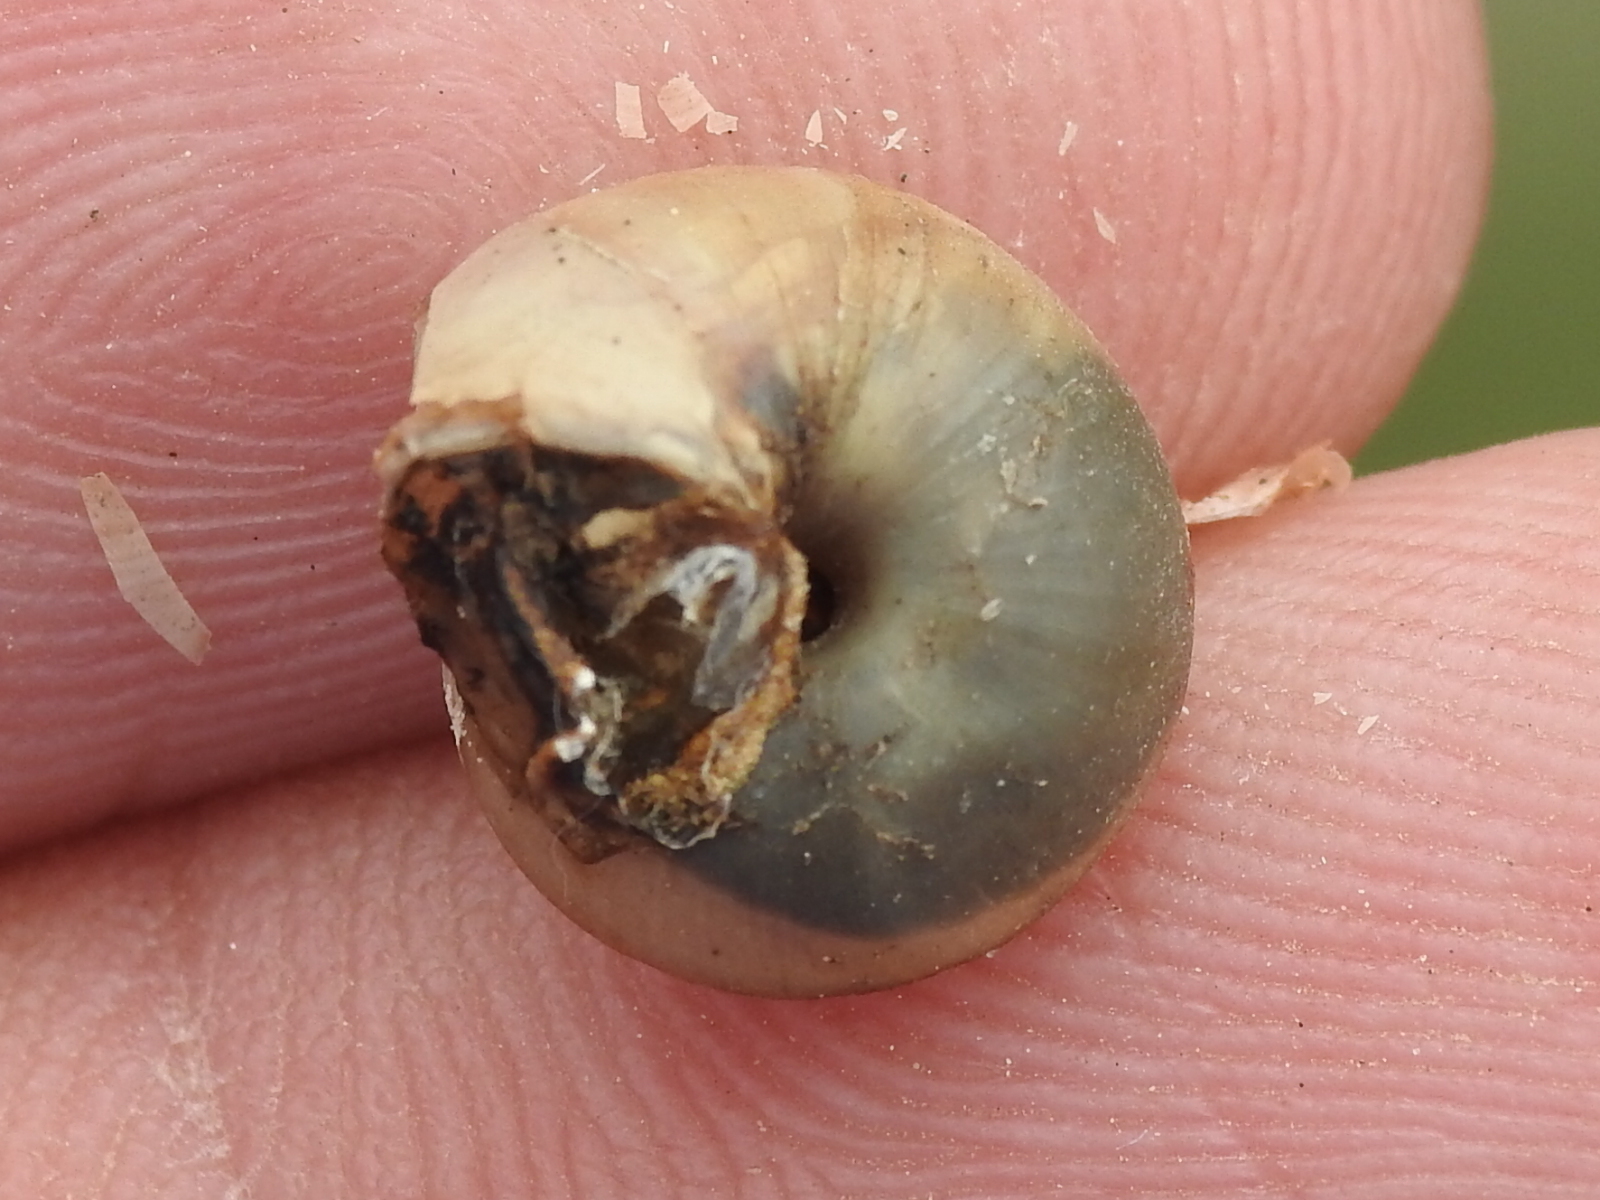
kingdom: Animalia
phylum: Mollusca
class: Gastropoda
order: Stylommatophora
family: Camaenidae
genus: Bradybaena
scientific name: Bradybaena similaris
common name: Asian trampsnail
